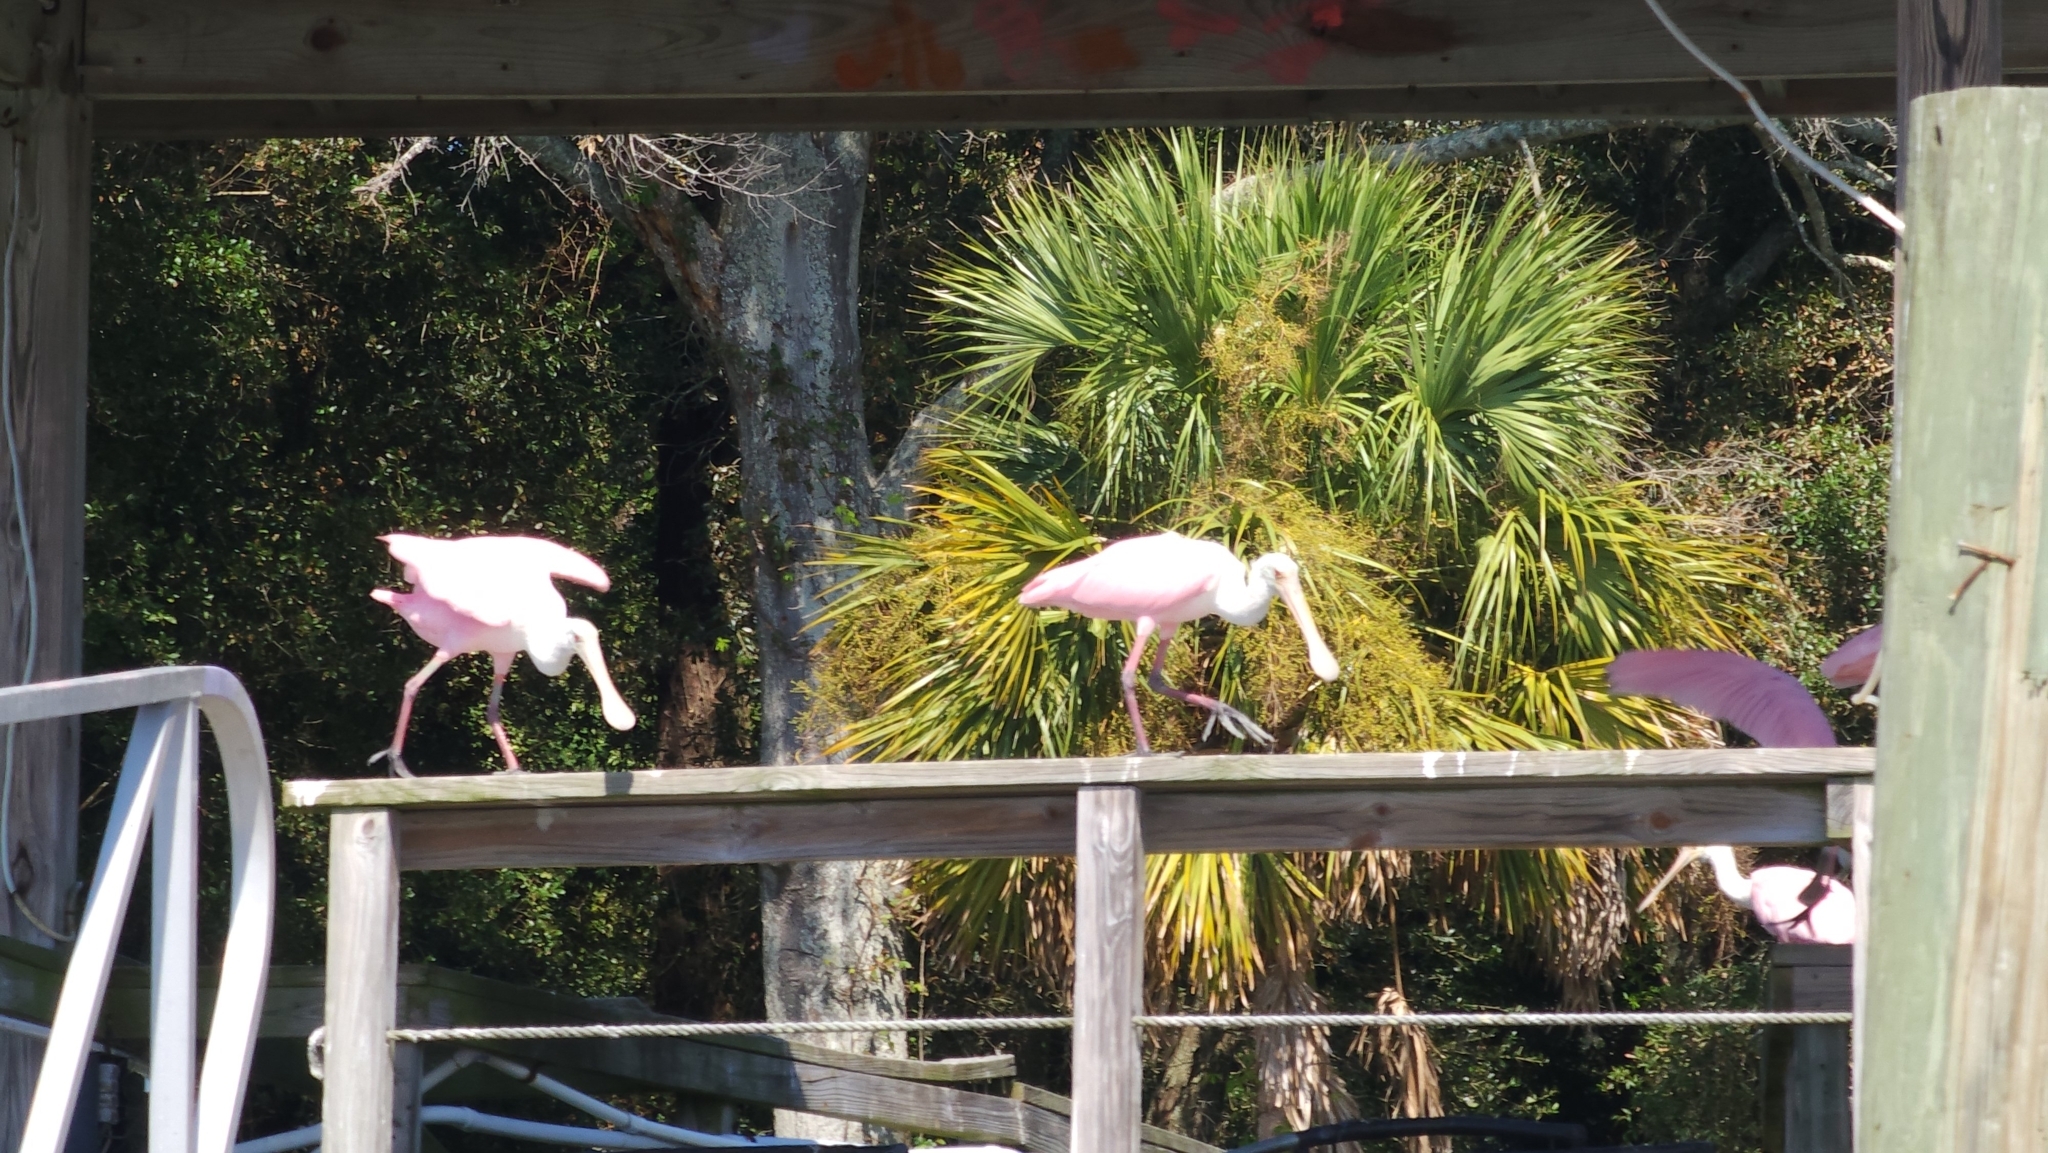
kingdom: Animalia
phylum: Chordata
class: Aves
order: Pelecaniformes
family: Threskiornithidae
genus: Platalea
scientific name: Platalea ajaja
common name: Roseate spoonbill
